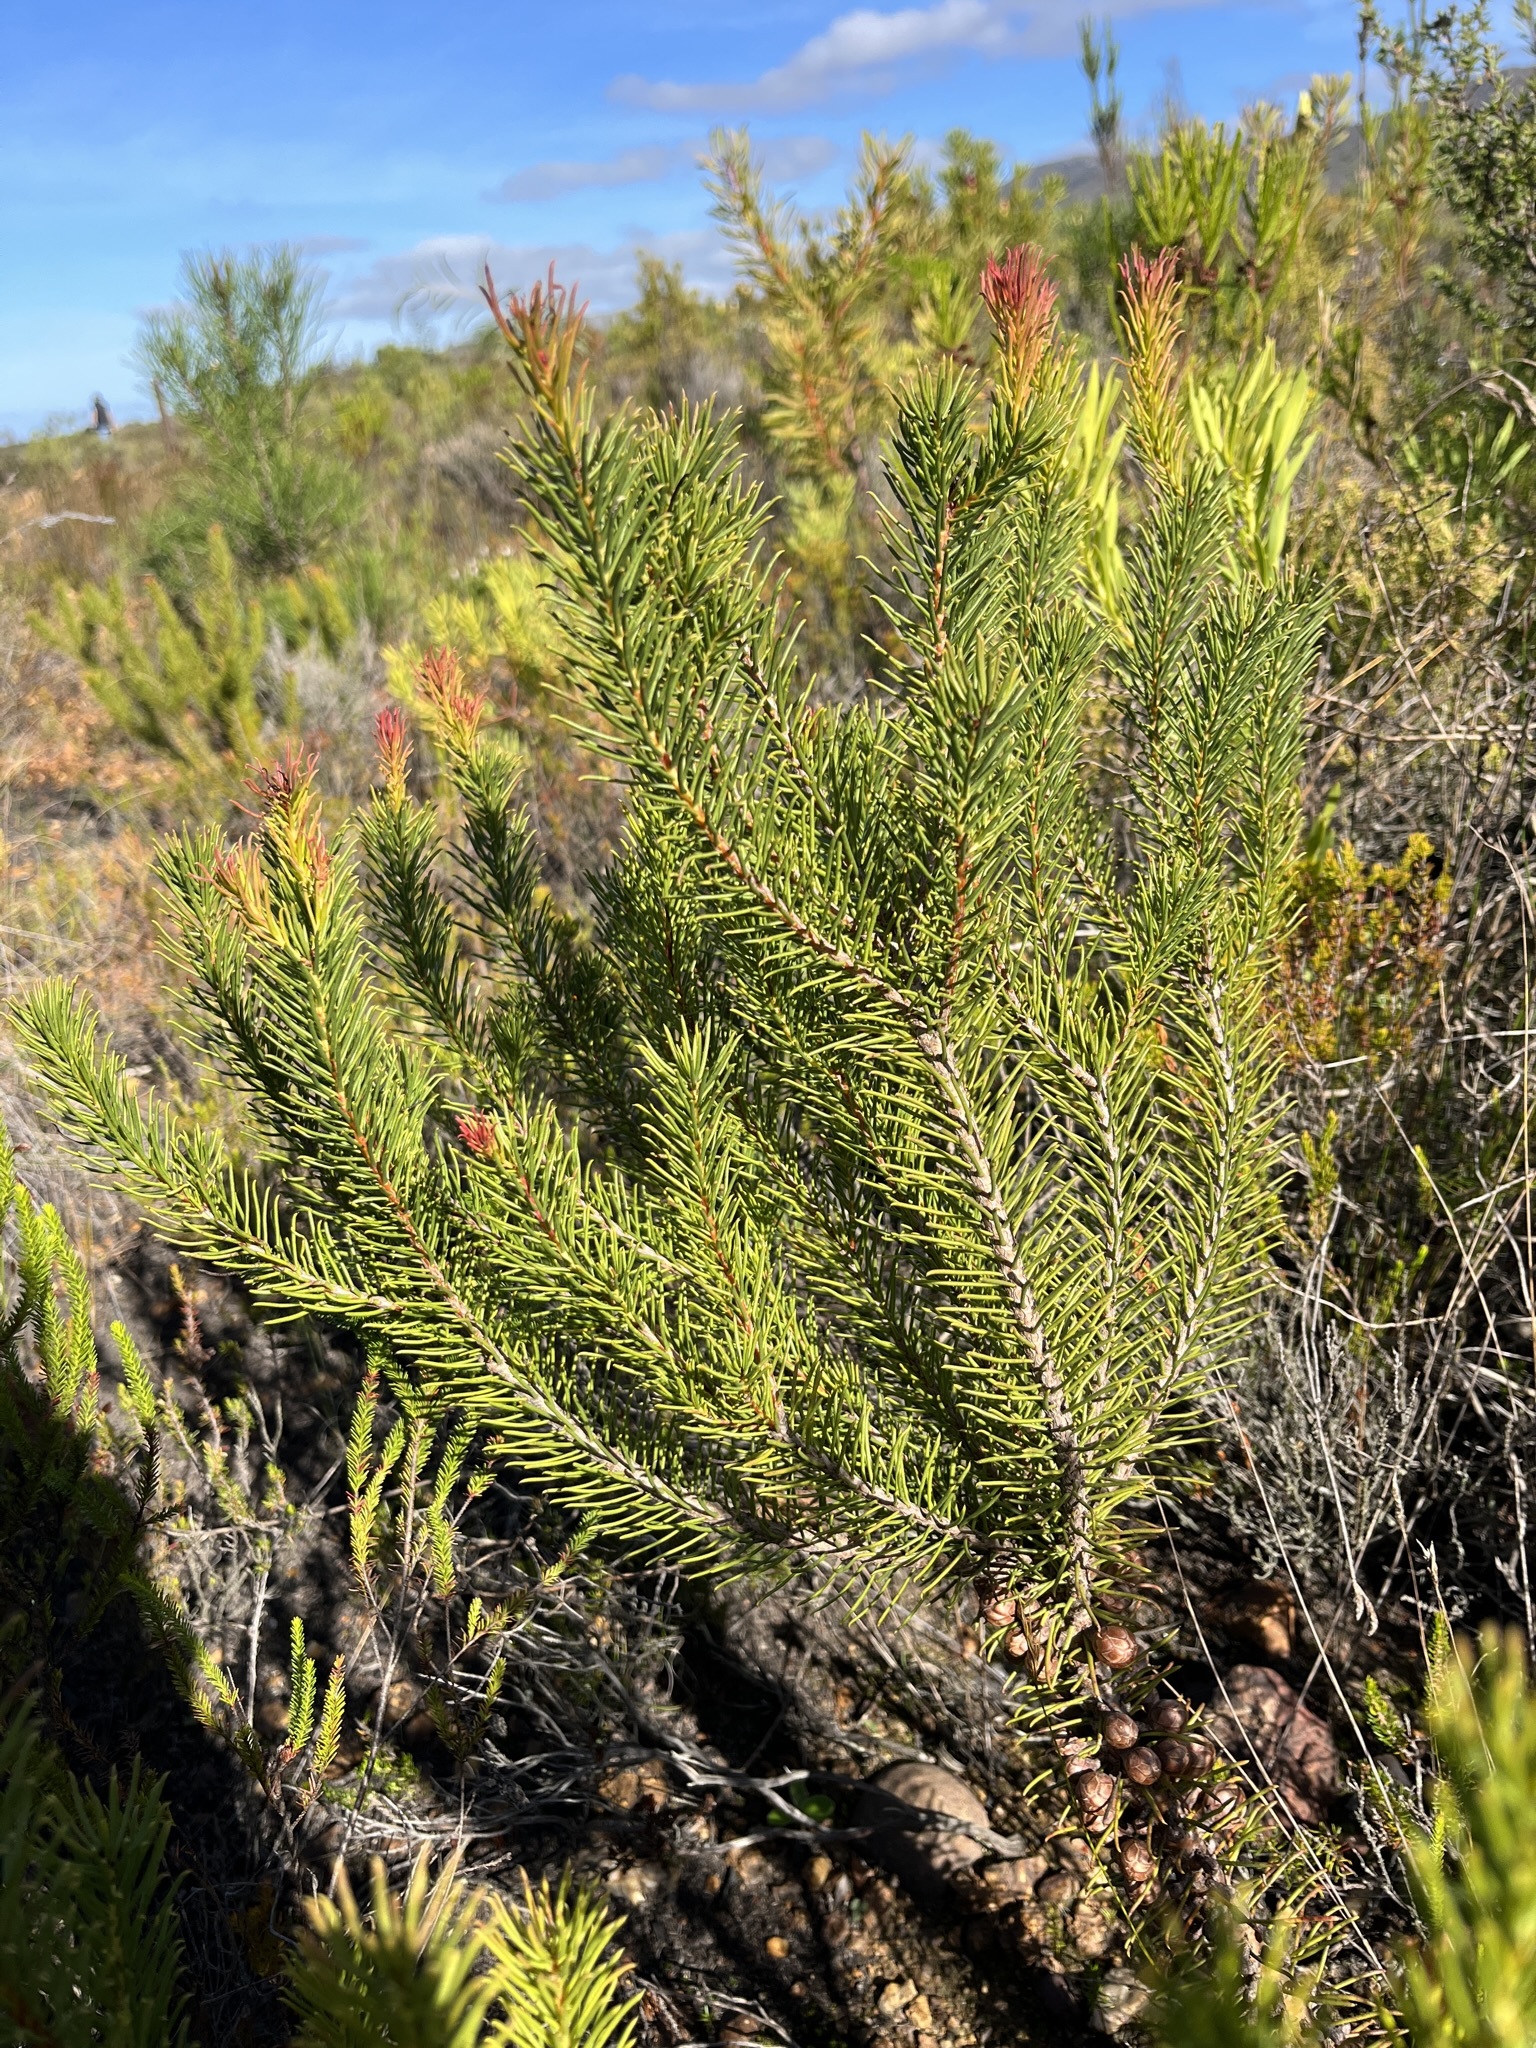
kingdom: Plantae
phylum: Tracheophyta
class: Magnoliopsida
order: Proteales
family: Proteaceae
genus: Protea
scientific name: Protea subulifolia
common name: Awl-leaf sugarbush
